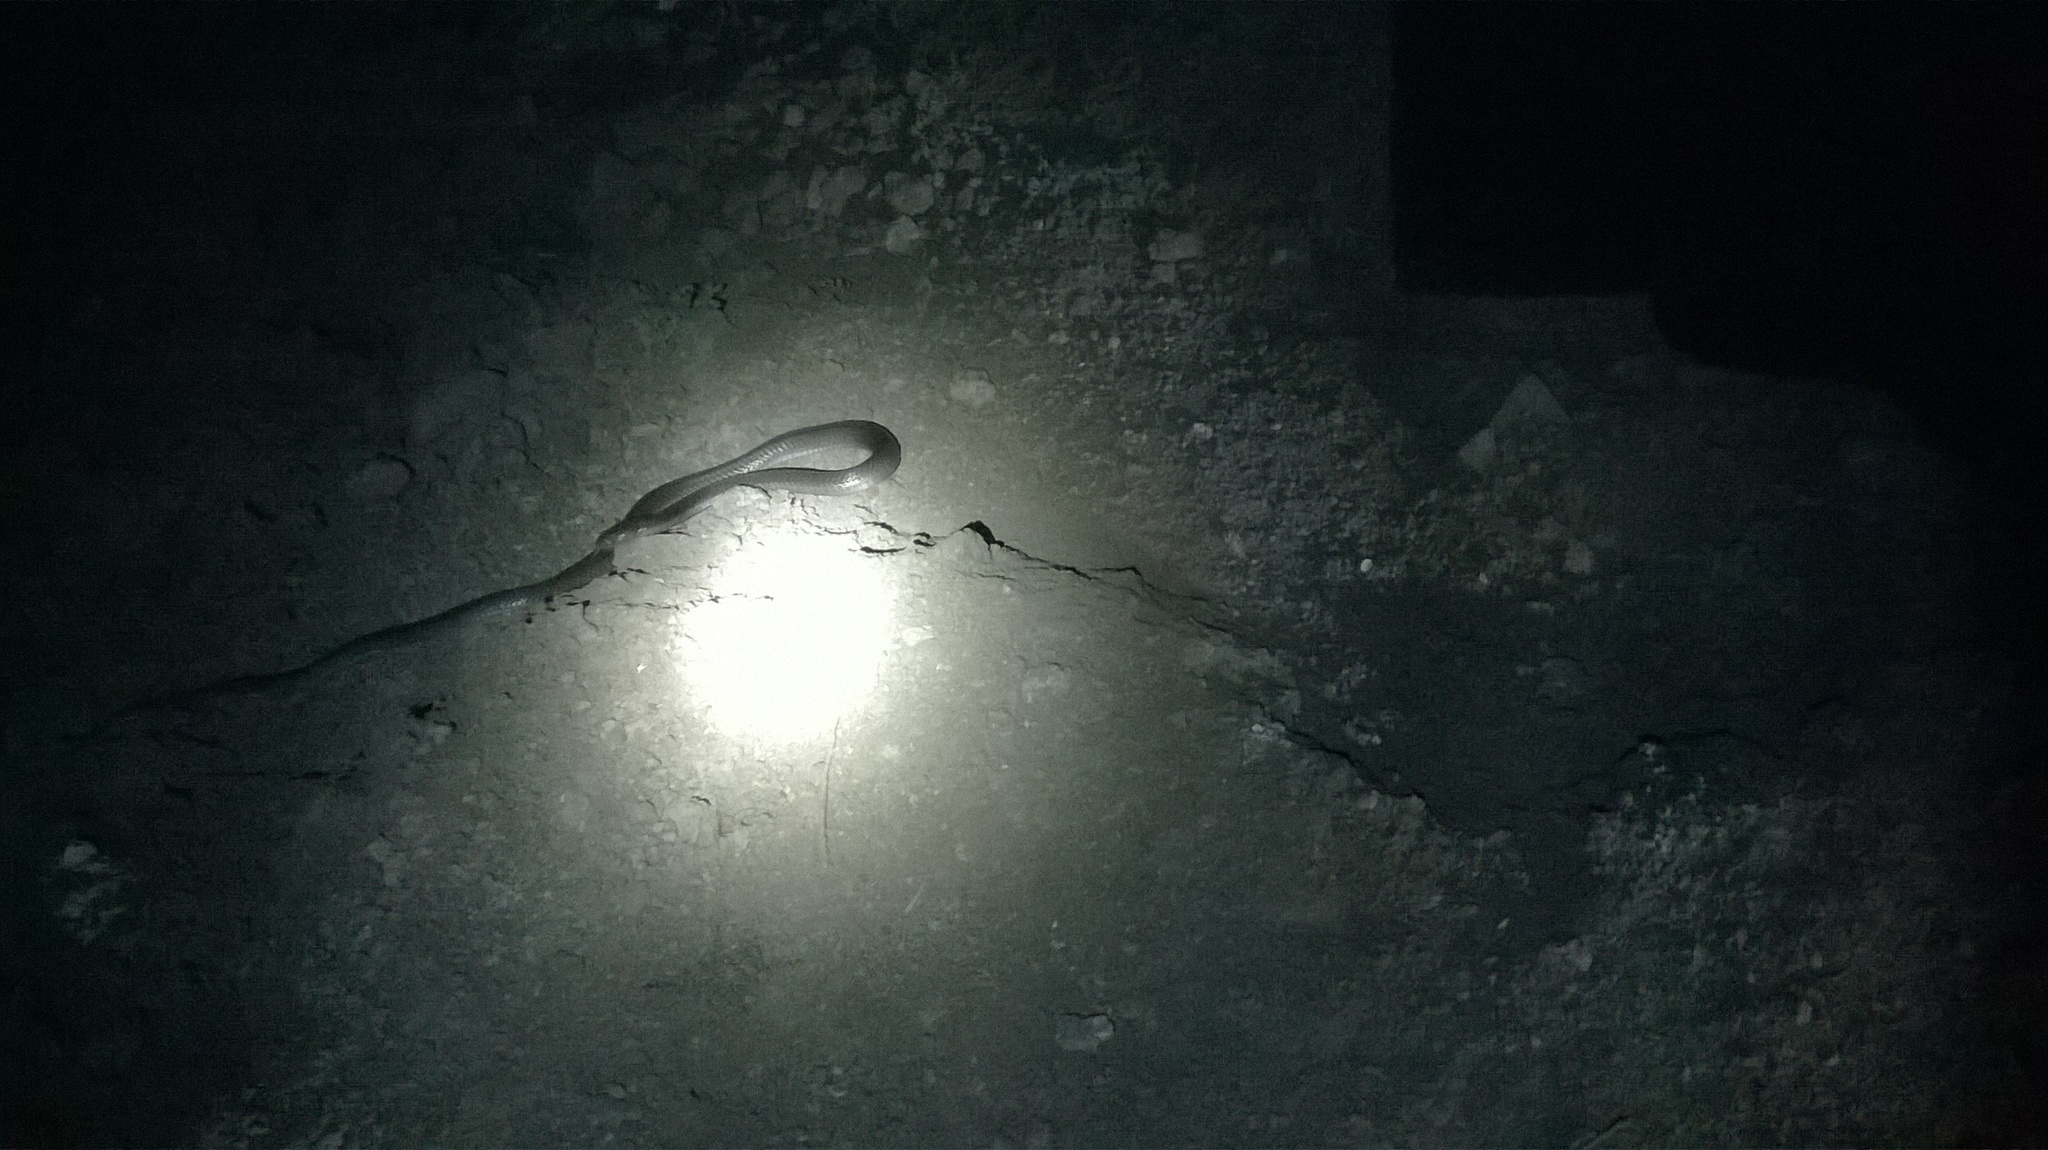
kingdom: Animalia
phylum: Chordata
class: Squamata
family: Elapidae
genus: Naja
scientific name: Naja naja
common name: Indian cobra
